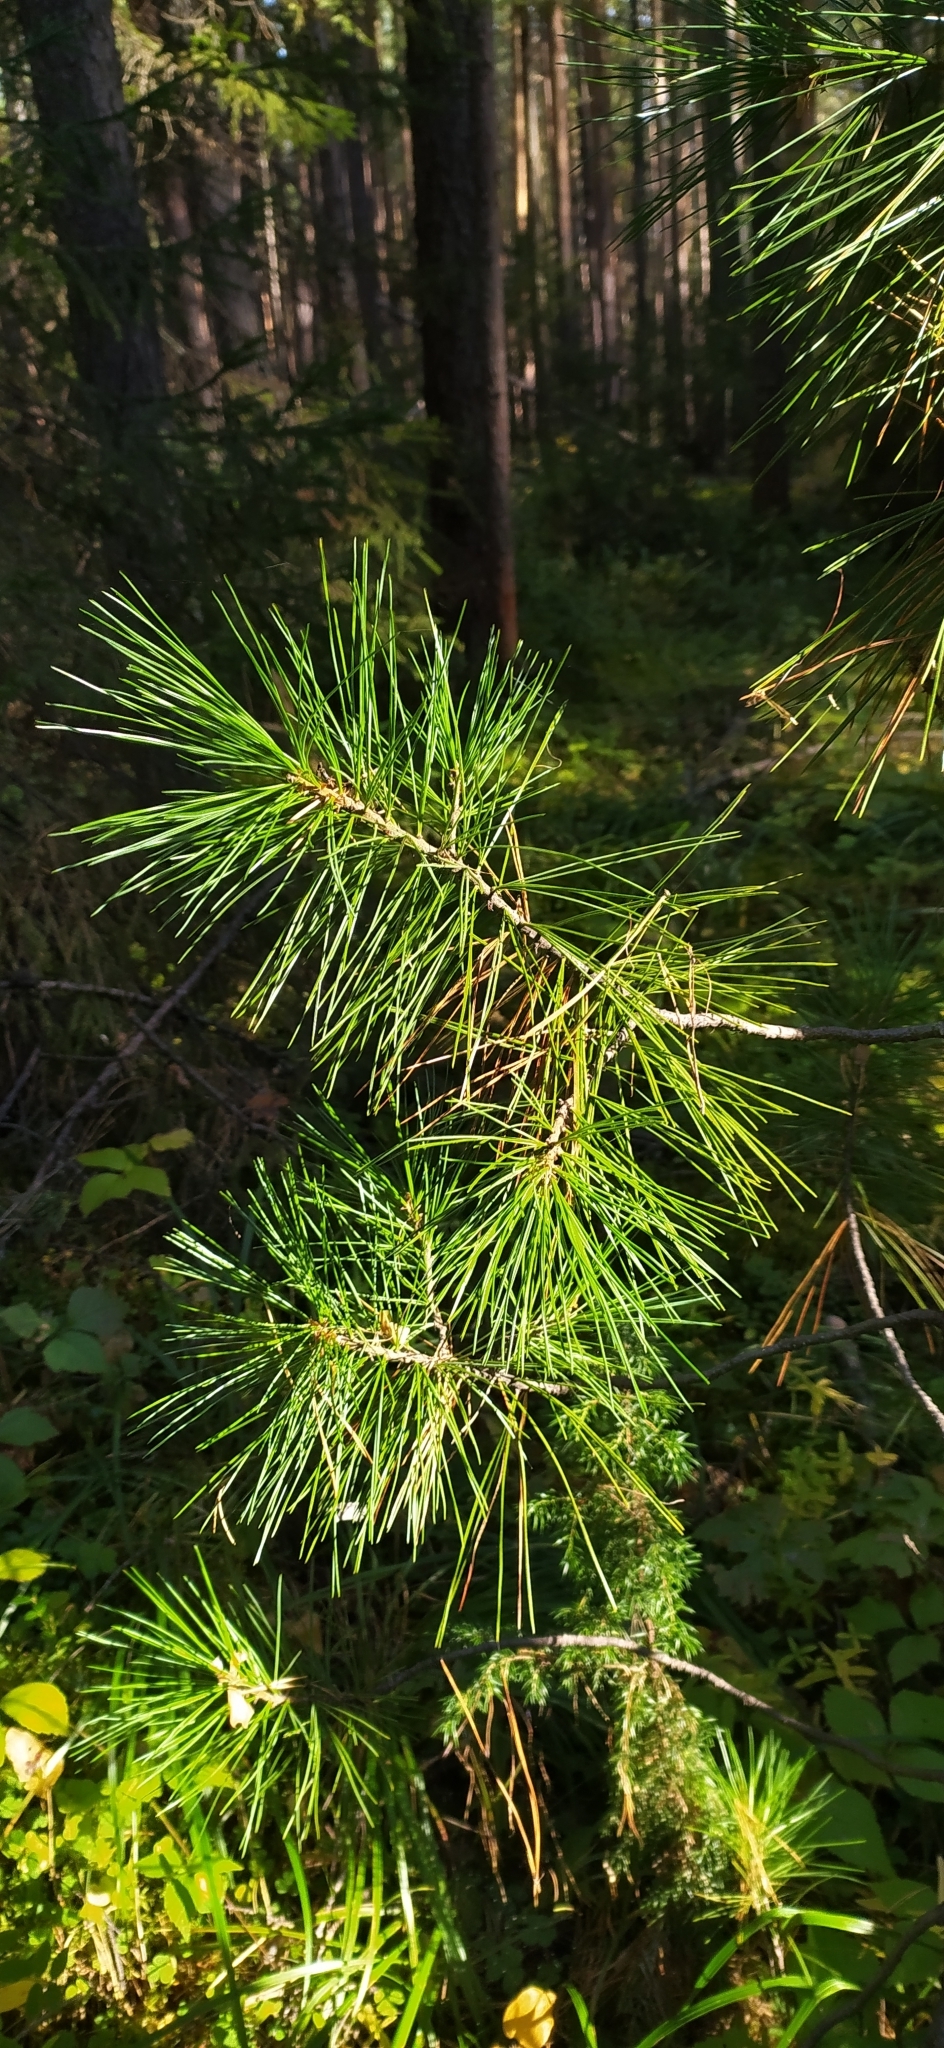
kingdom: Plantae
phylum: Tracheophyta
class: Pinopsida
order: Pinales
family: Pinaceae
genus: Pinus
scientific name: Pinus sibirica
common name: Siberian pine
